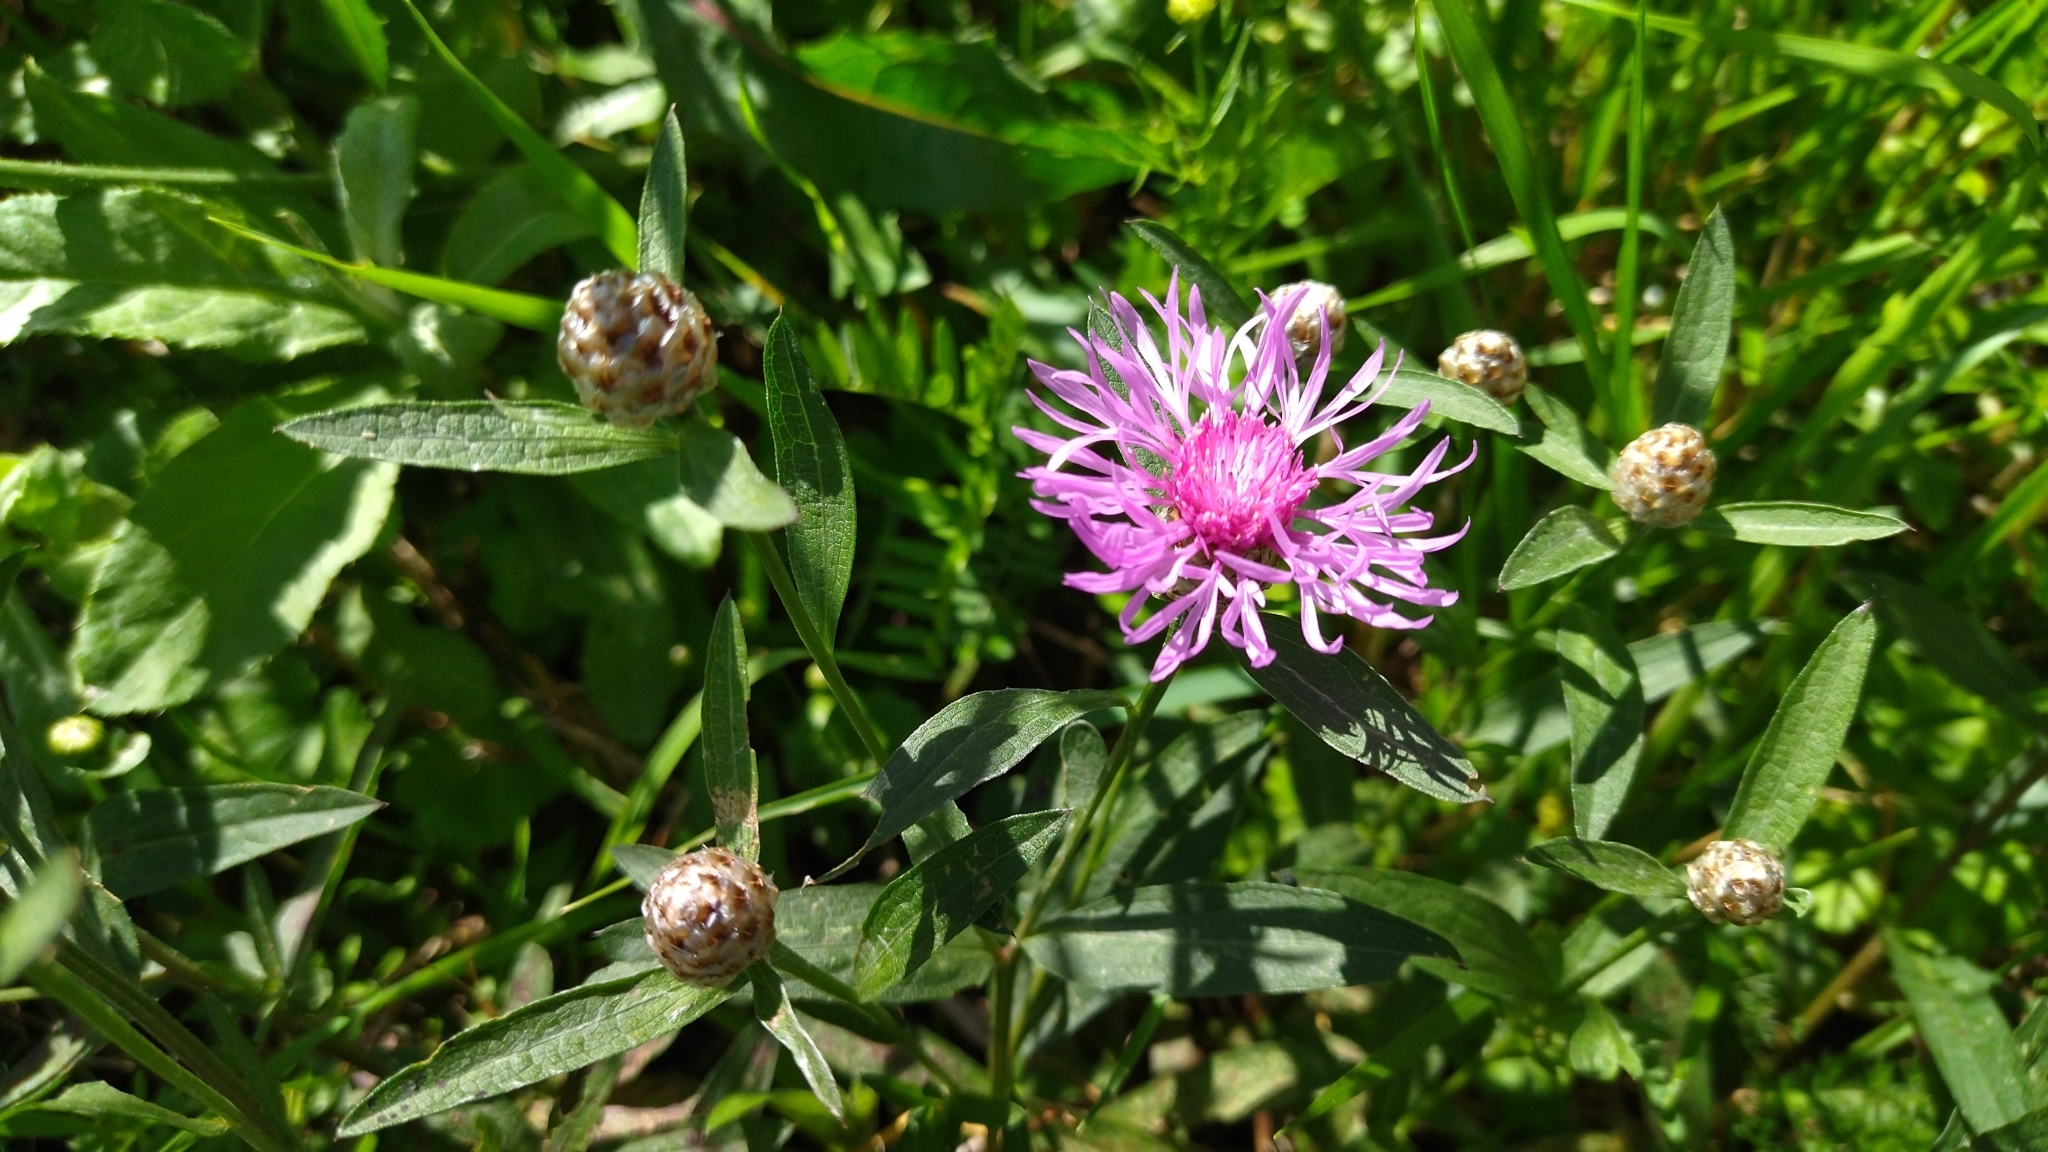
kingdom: Plantae
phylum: Tracheophyta
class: Magnoliopsida
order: Asterales
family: Asteraceae
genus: Centaurea
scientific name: Centaurea jacea
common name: Brown knapweed
